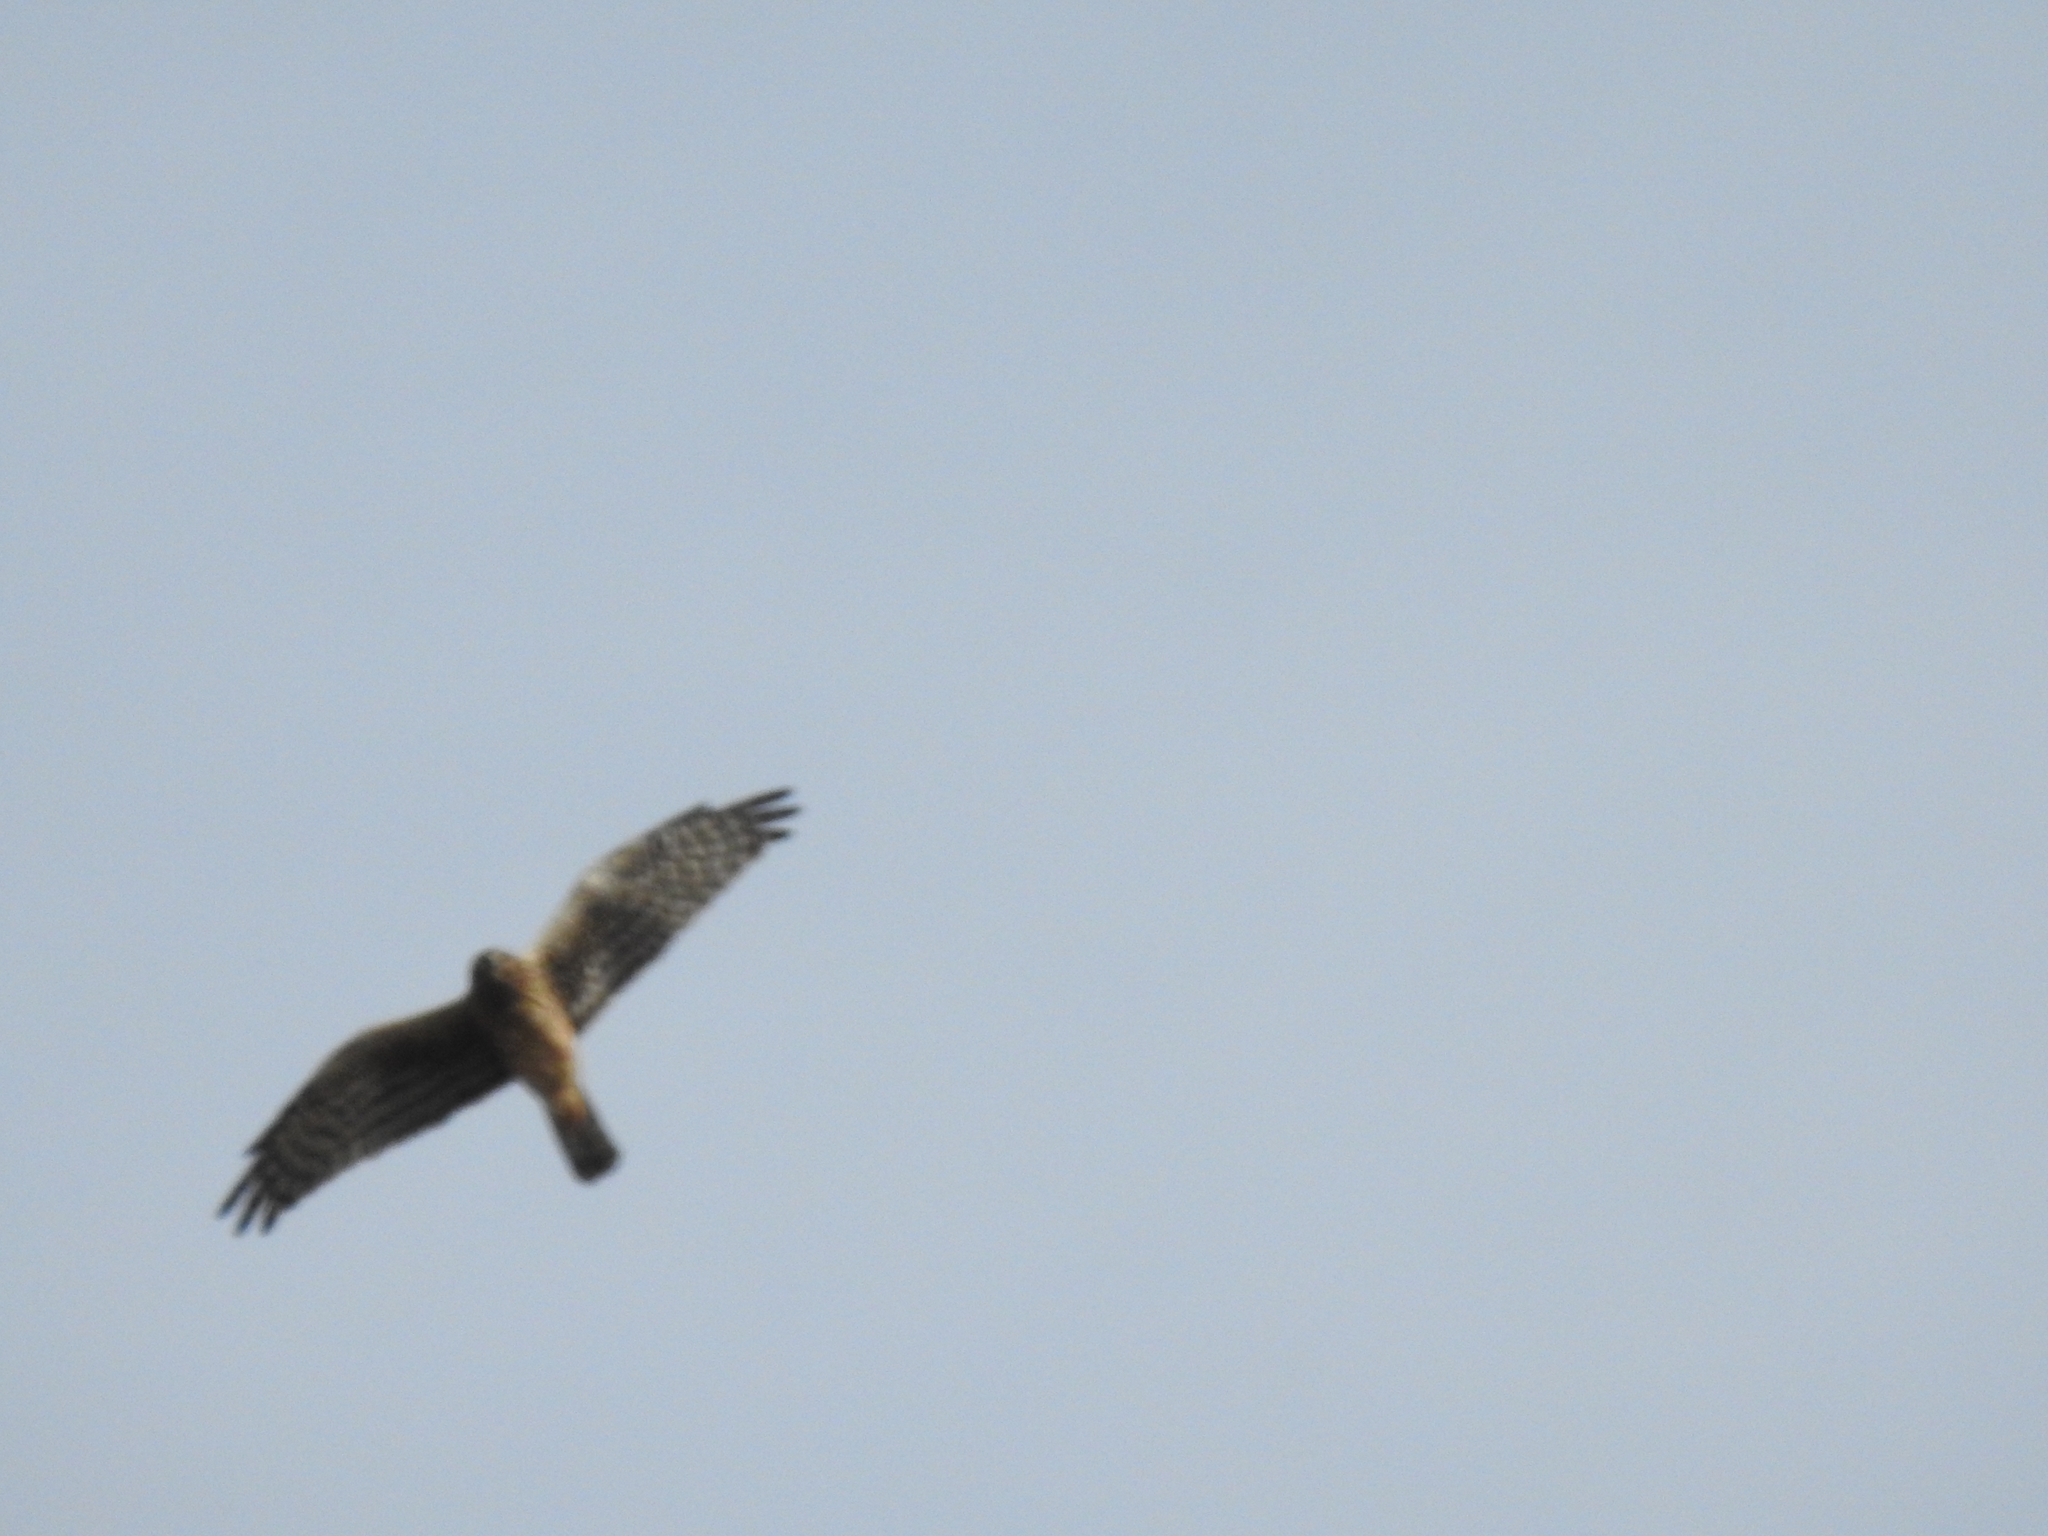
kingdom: Animalia
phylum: Chordata
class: Aves
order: Accipitriformes
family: Accipitridae
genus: Circus
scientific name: Circus cyaneus
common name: Hen harrier
